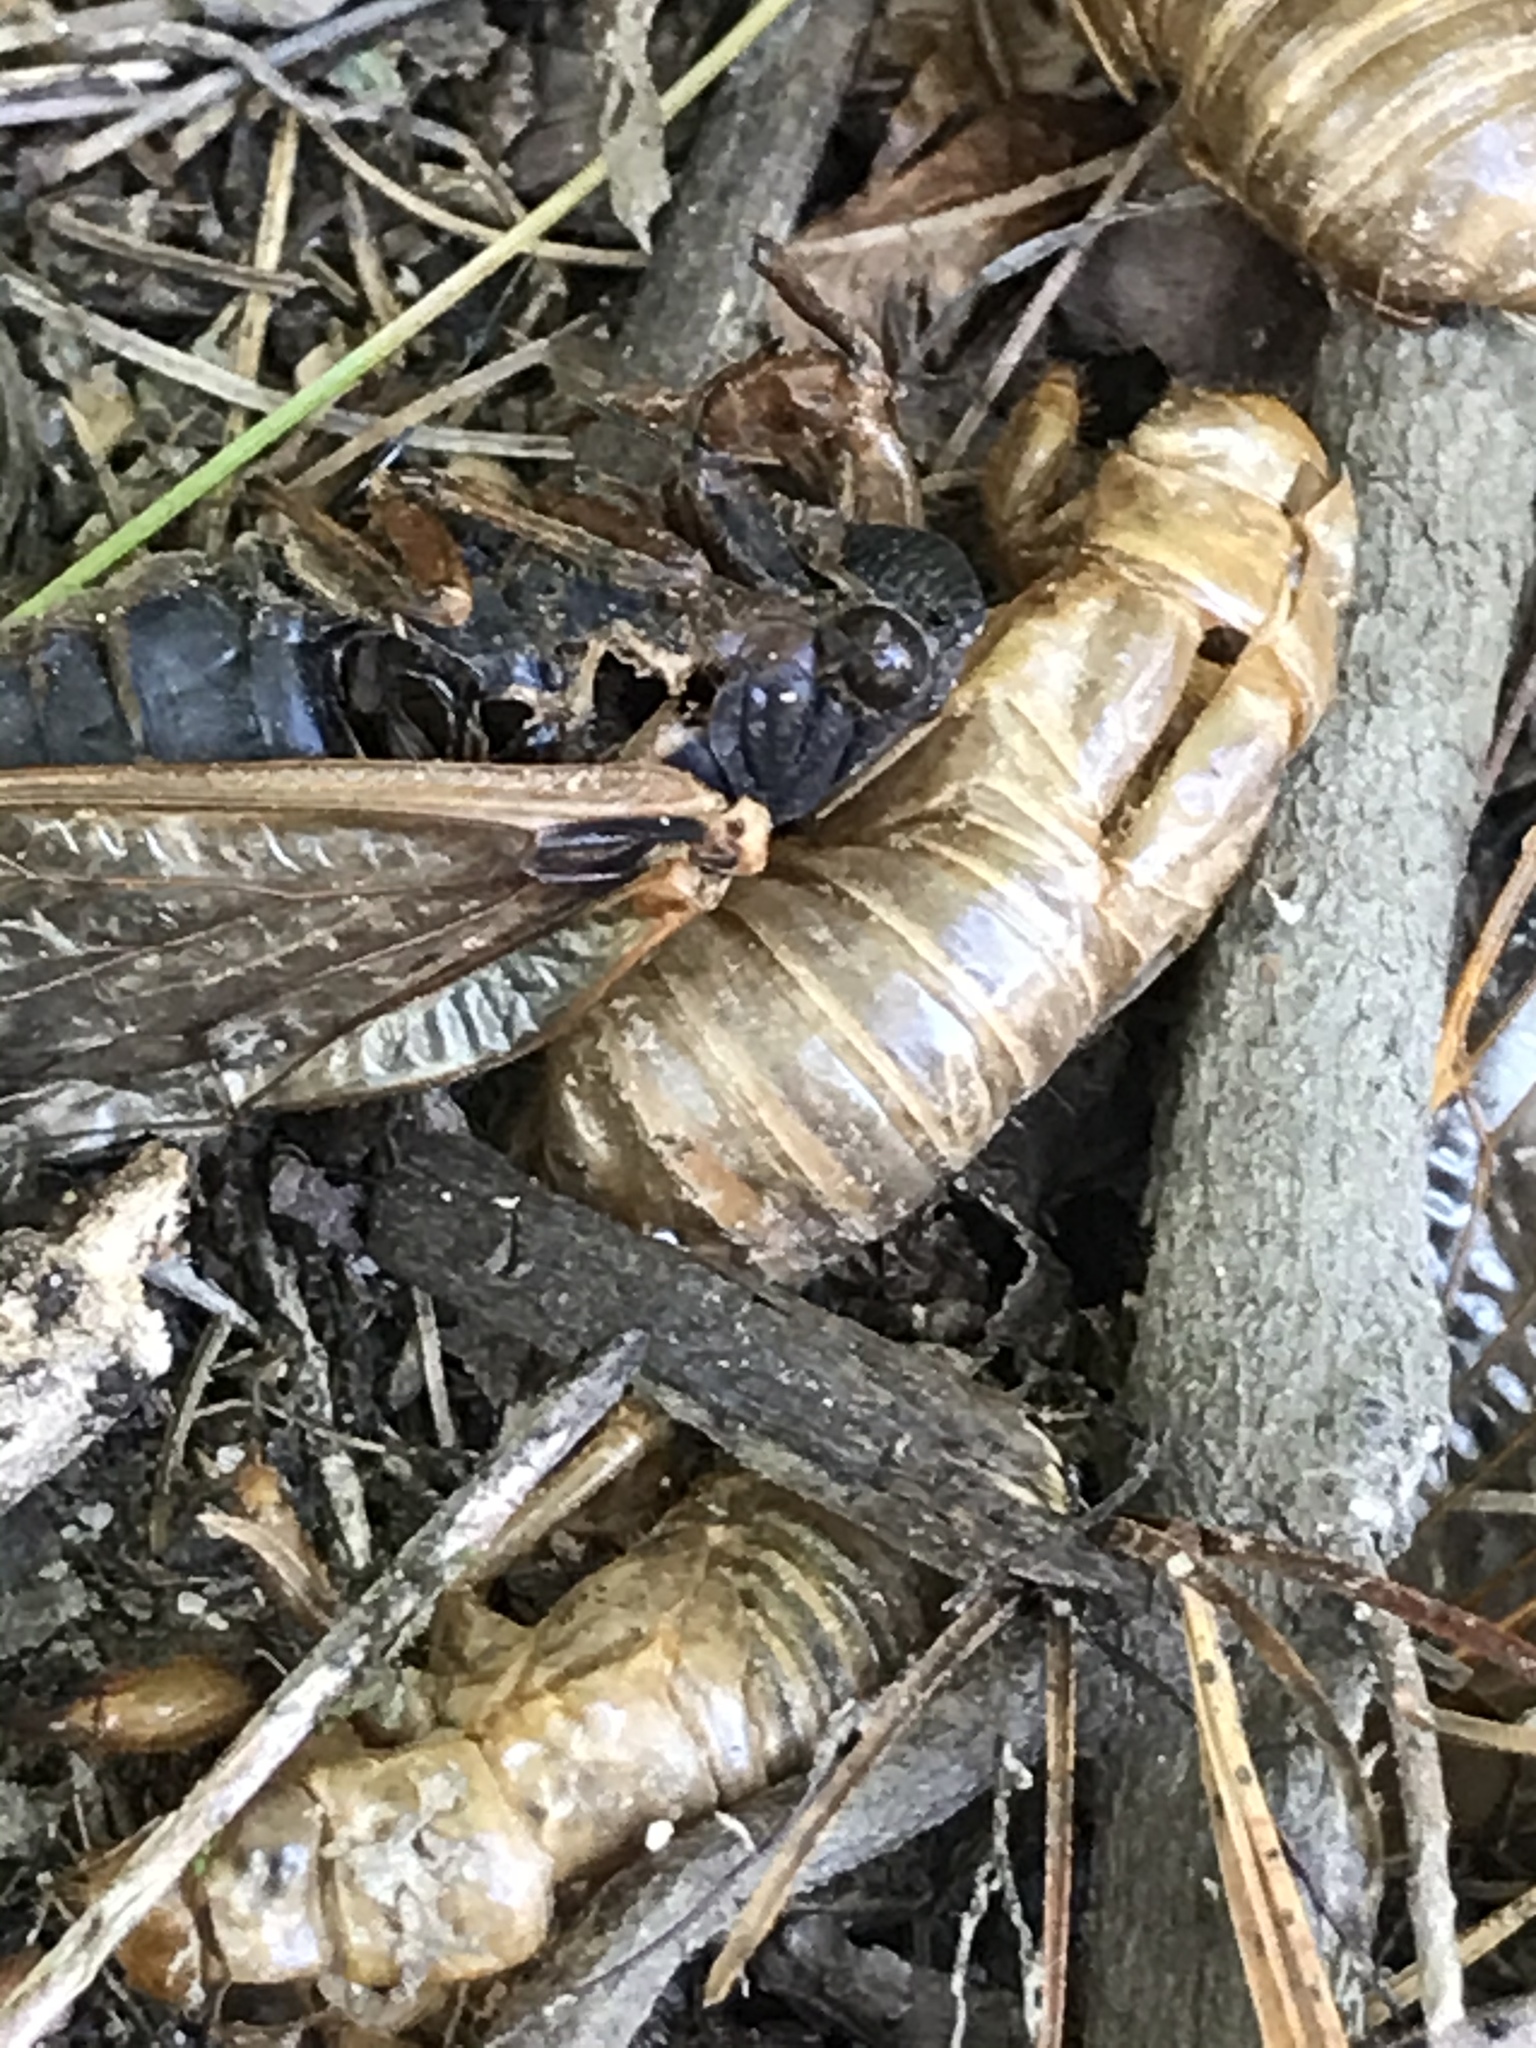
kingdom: Animalia
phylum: Arthropoda
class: Insecta
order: Hemiptera
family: Cicadidae
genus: Magicicada
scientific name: Magicicada septendecim
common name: Periodical cicada
